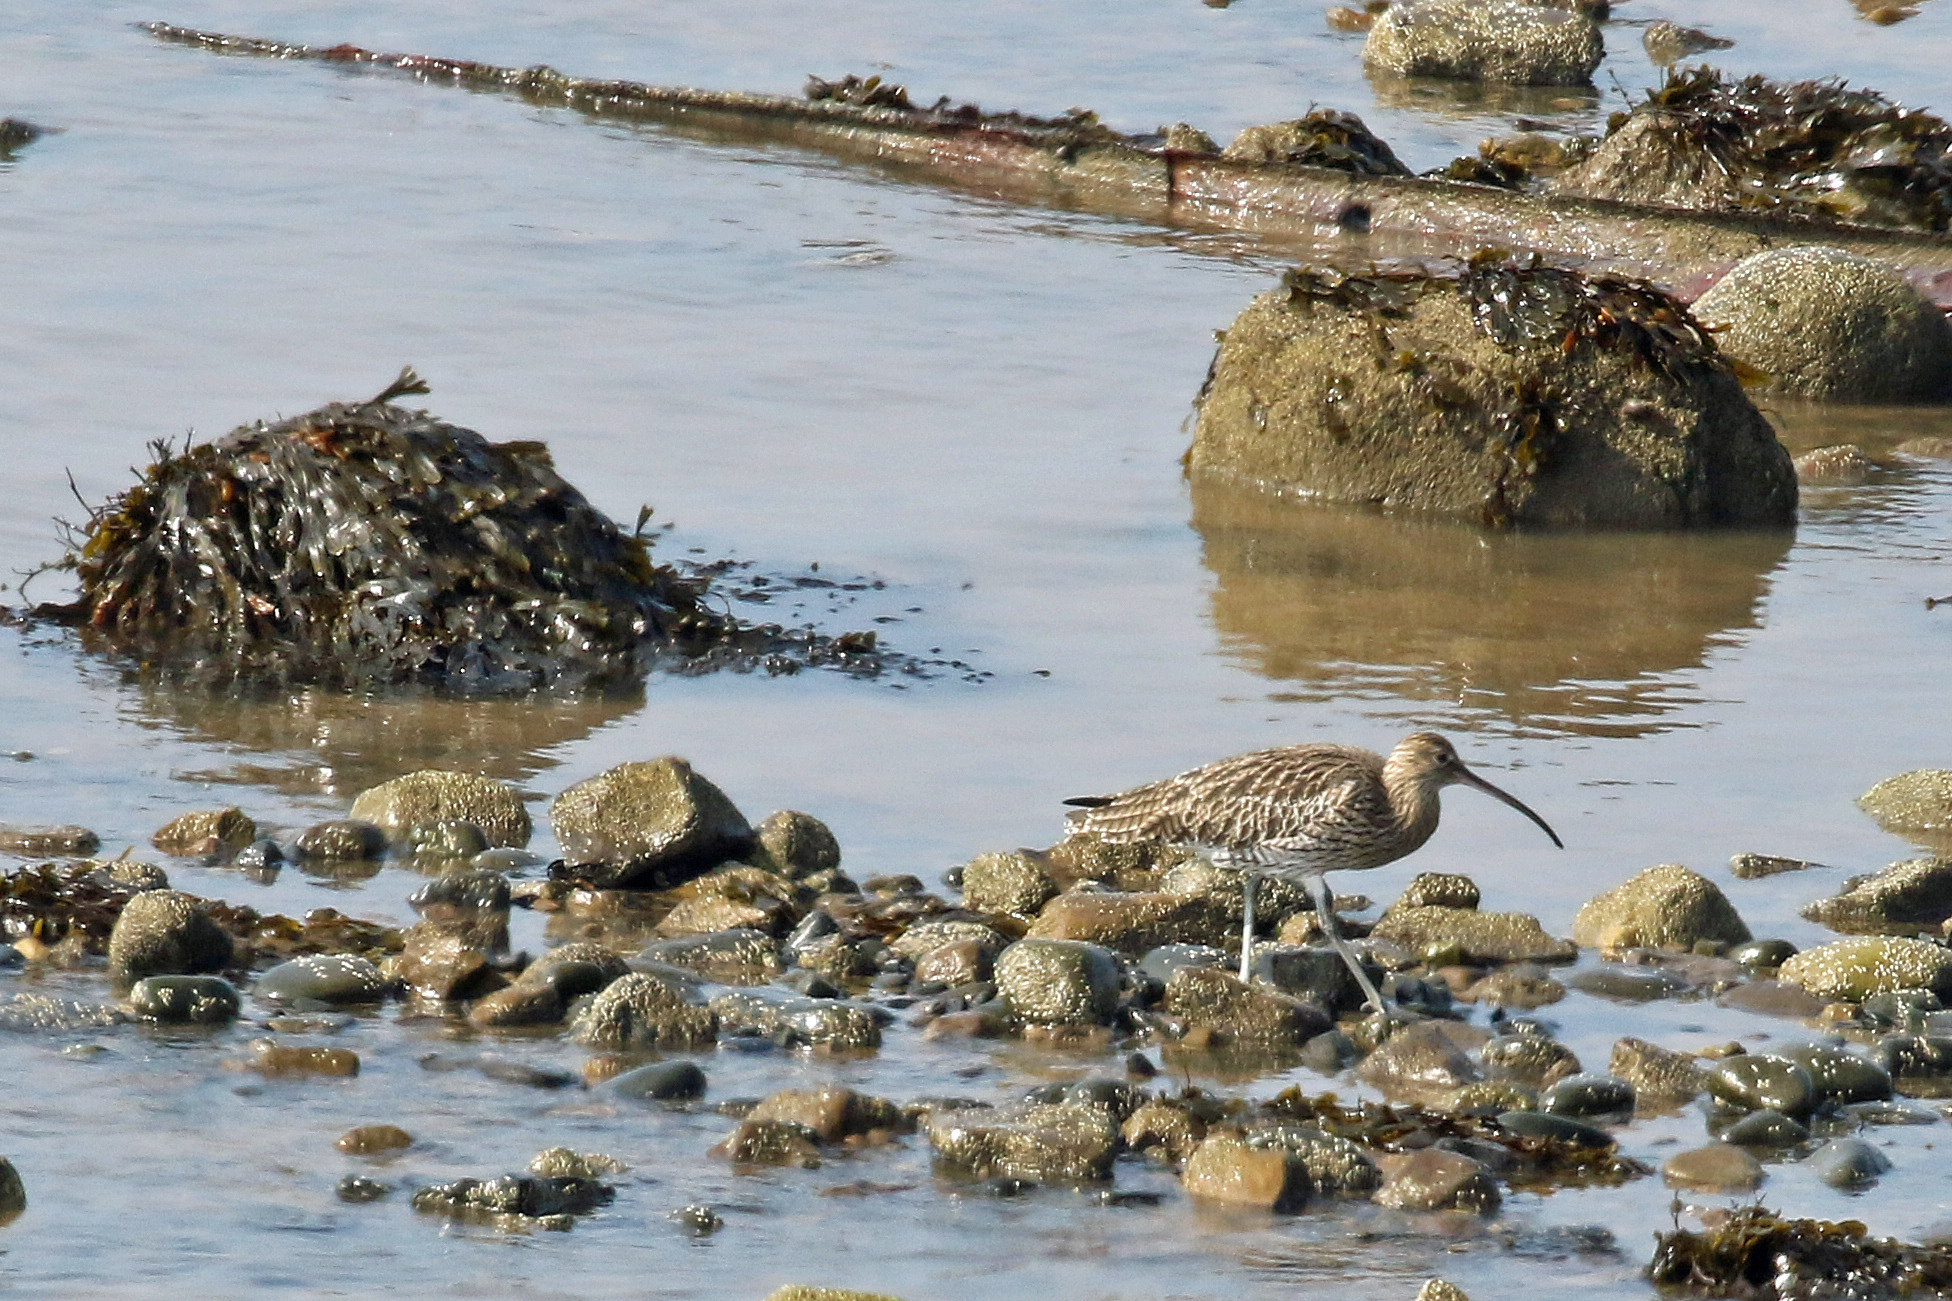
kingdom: Animalia
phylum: Chordata
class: Aves
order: Charadriiformes
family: Scolopacidae
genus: Numenius
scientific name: Numenius arquata
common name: Eurasian curlew
